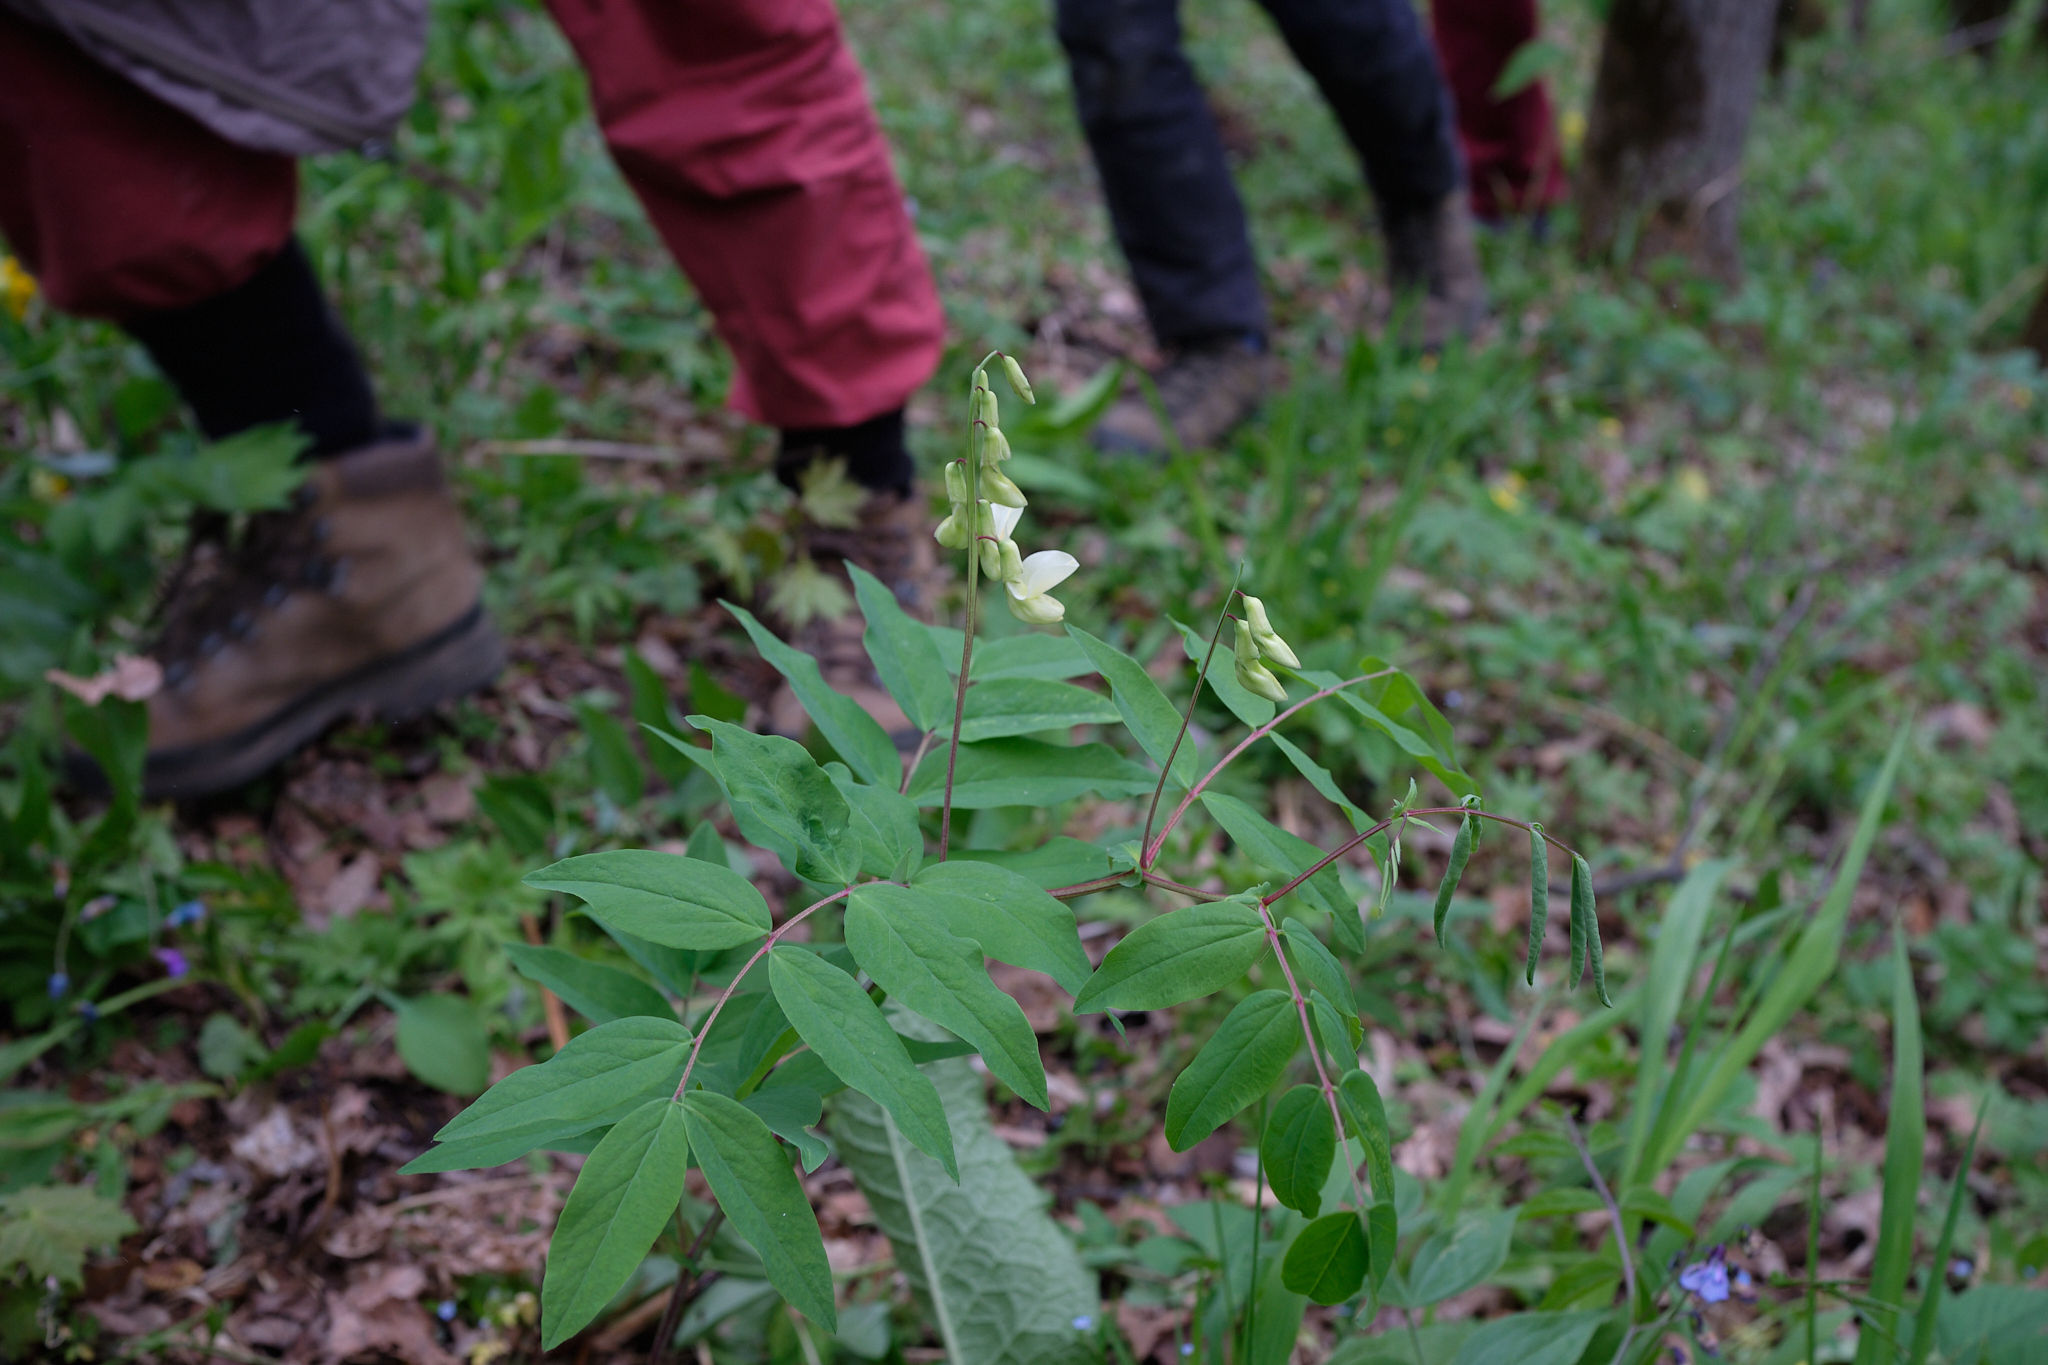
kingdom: Plantae
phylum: Tracheophyta
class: Magnoliopsida
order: Fabales
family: Fabaceae
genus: Lathyrus
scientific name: Lathyrus gmelinii
